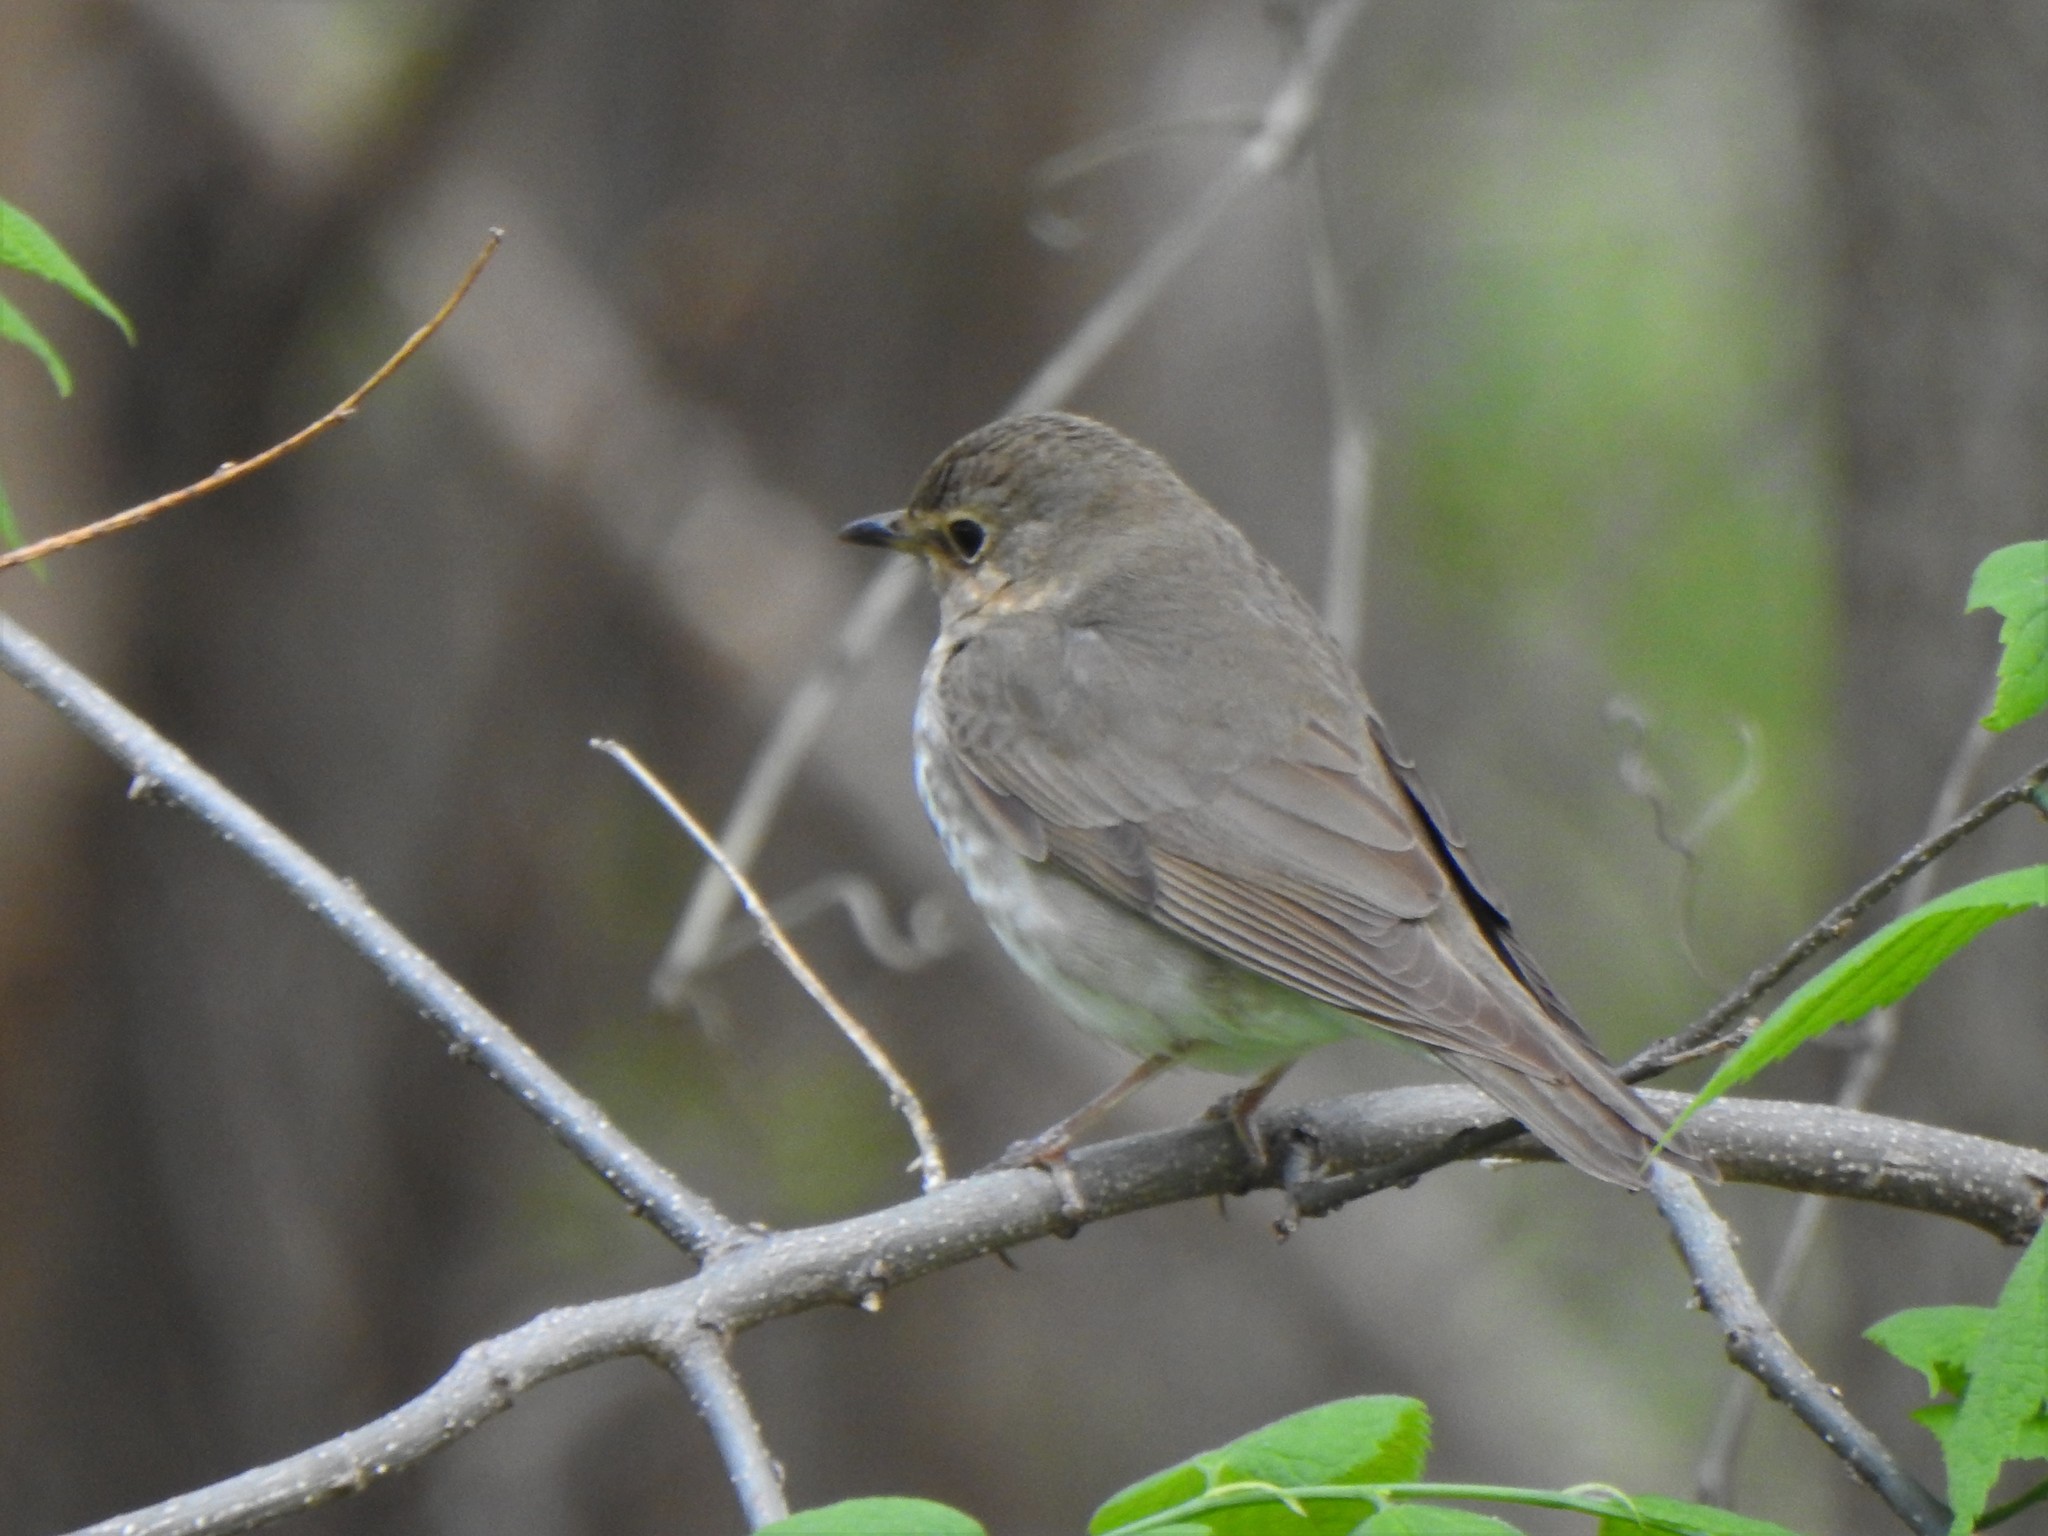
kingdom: Animalia
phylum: Chordata
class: Aves
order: Passeriformes
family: Turdidae
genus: Catharus
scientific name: Catharus ustulatus
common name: Swainson's thrush
